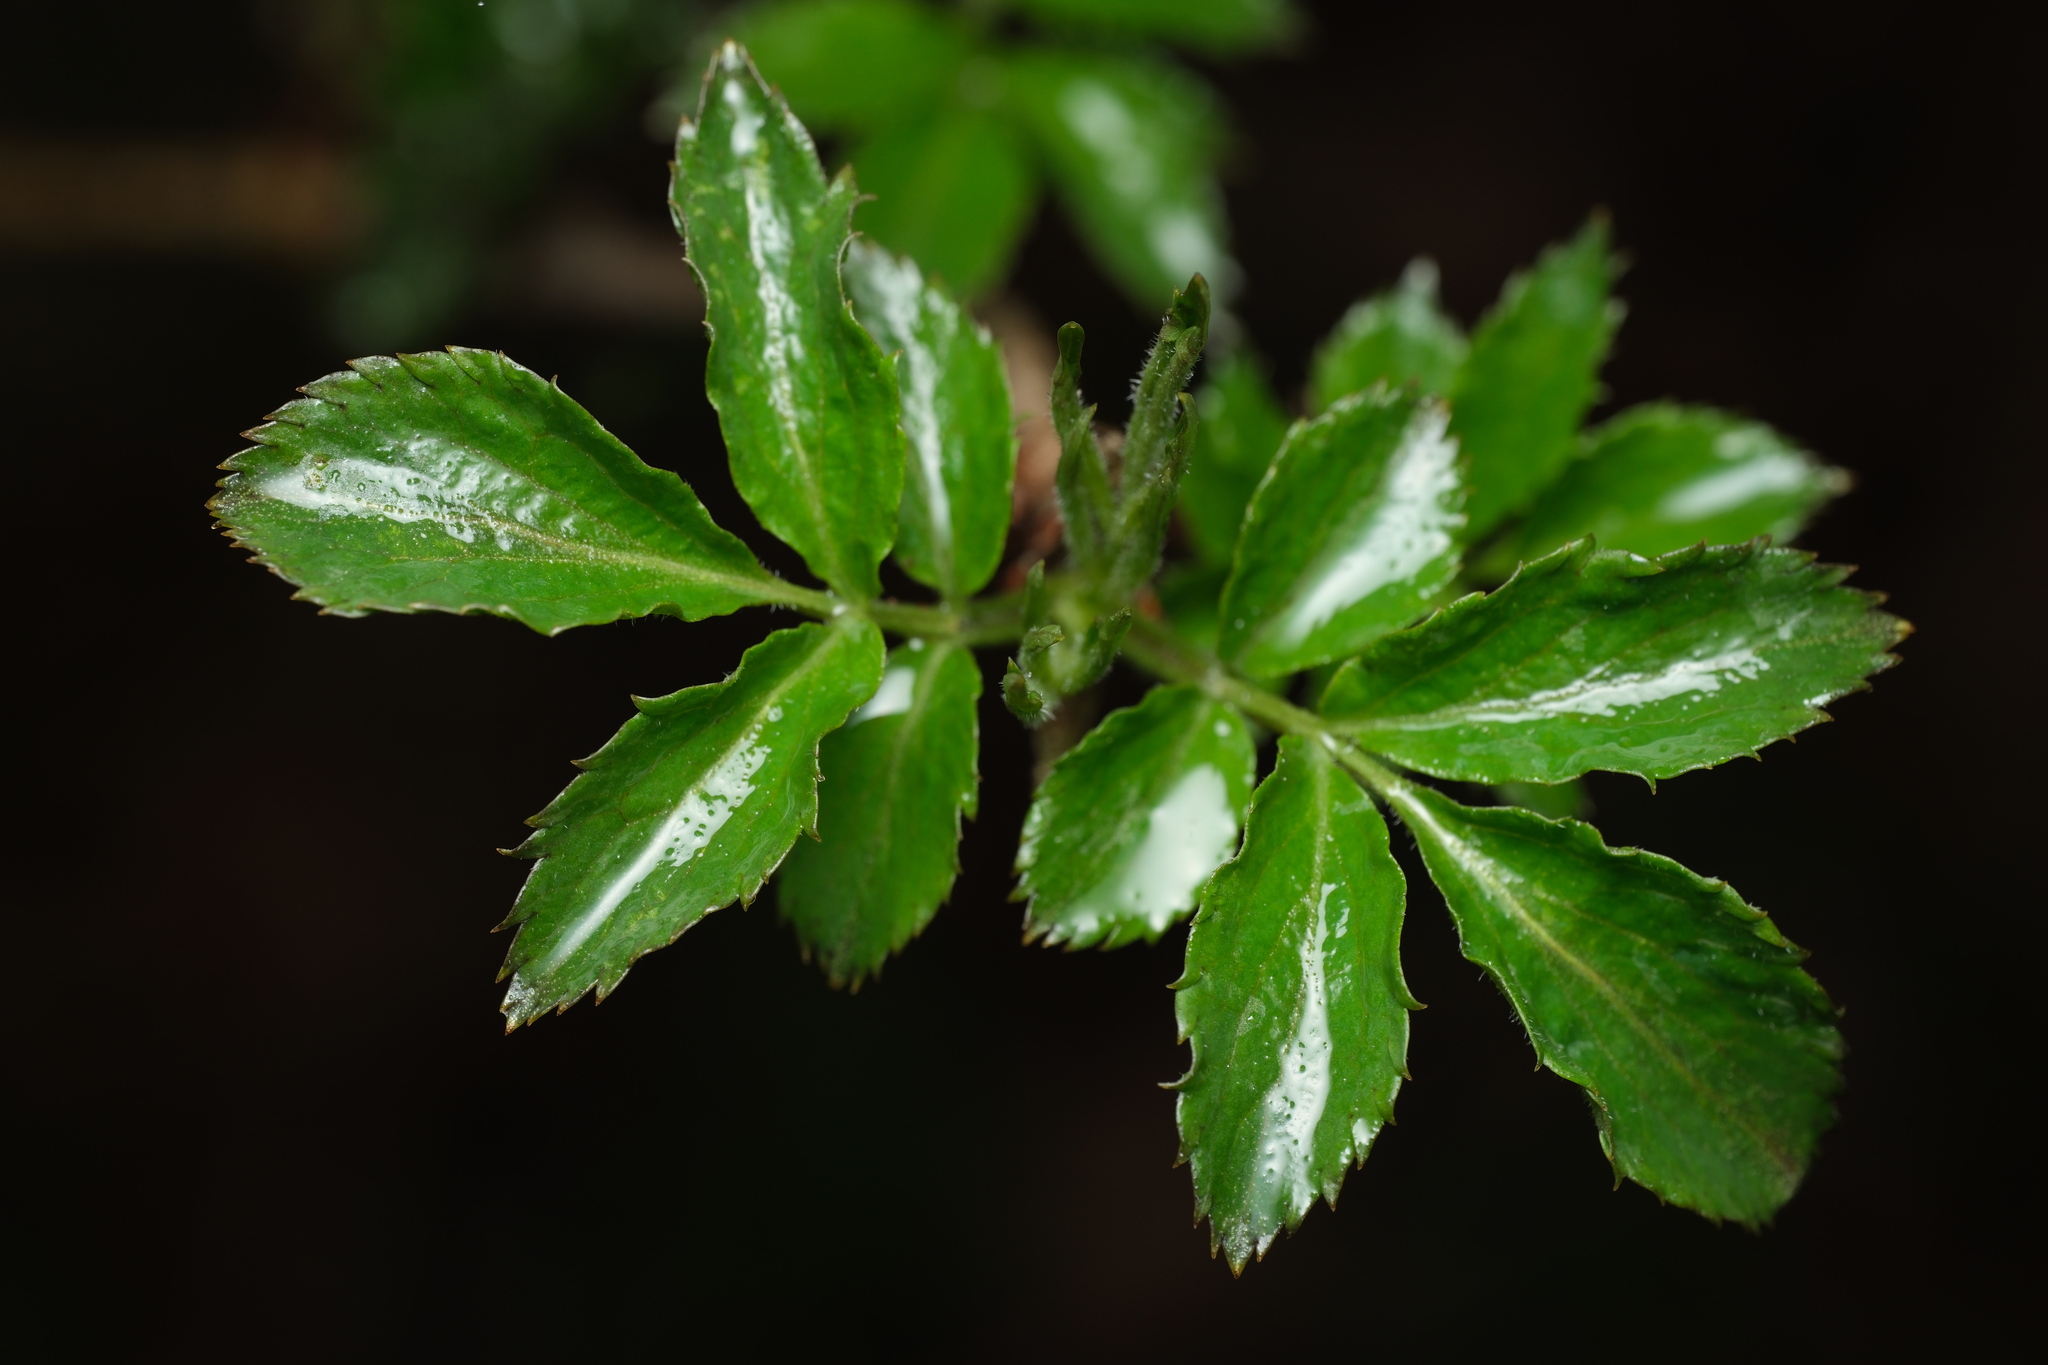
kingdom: Plantae
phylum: Tracheophyta
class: Magnoliopsida
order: Dipsacales
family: Viburnaceae
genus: Sambucus
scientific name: Sambucus nigra
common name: Elder
